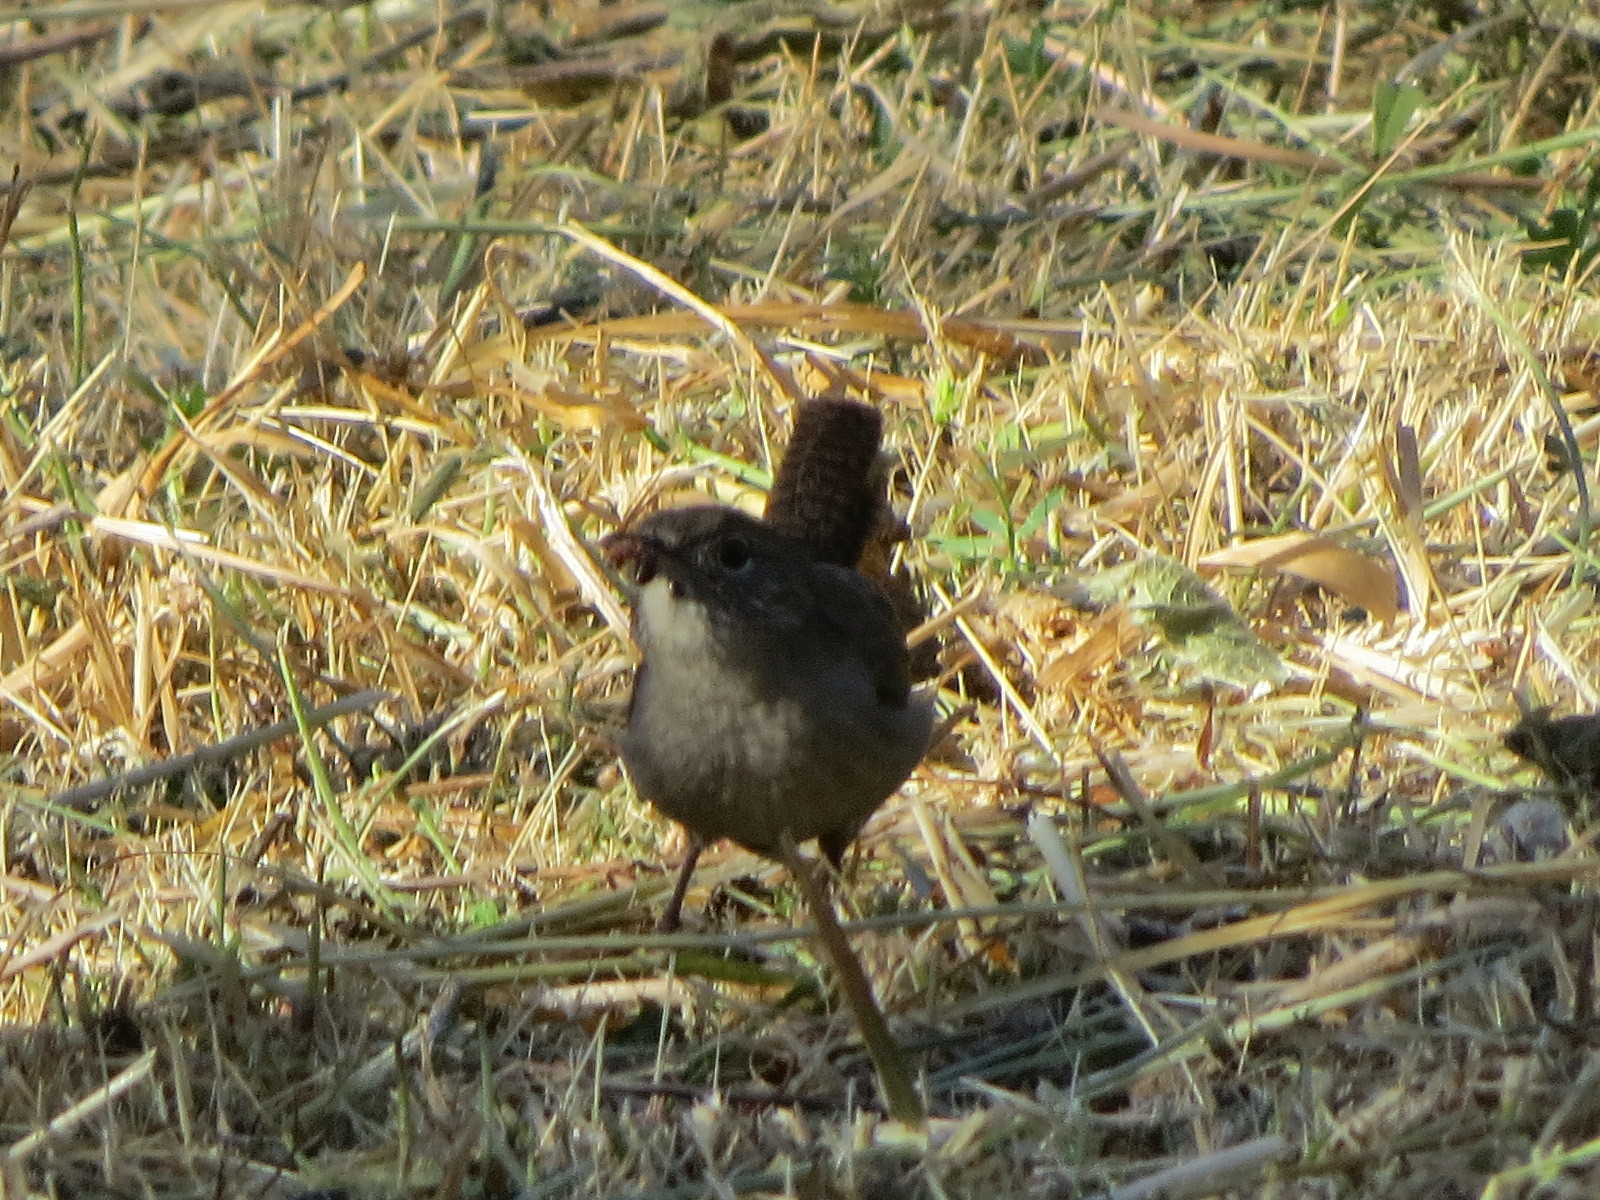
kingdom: Animalia
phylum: Chordata
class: Aves
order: Passeriformes
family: Troglodytidae
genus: Troglodytes
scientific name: Troglodytes aedon
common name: House wren
